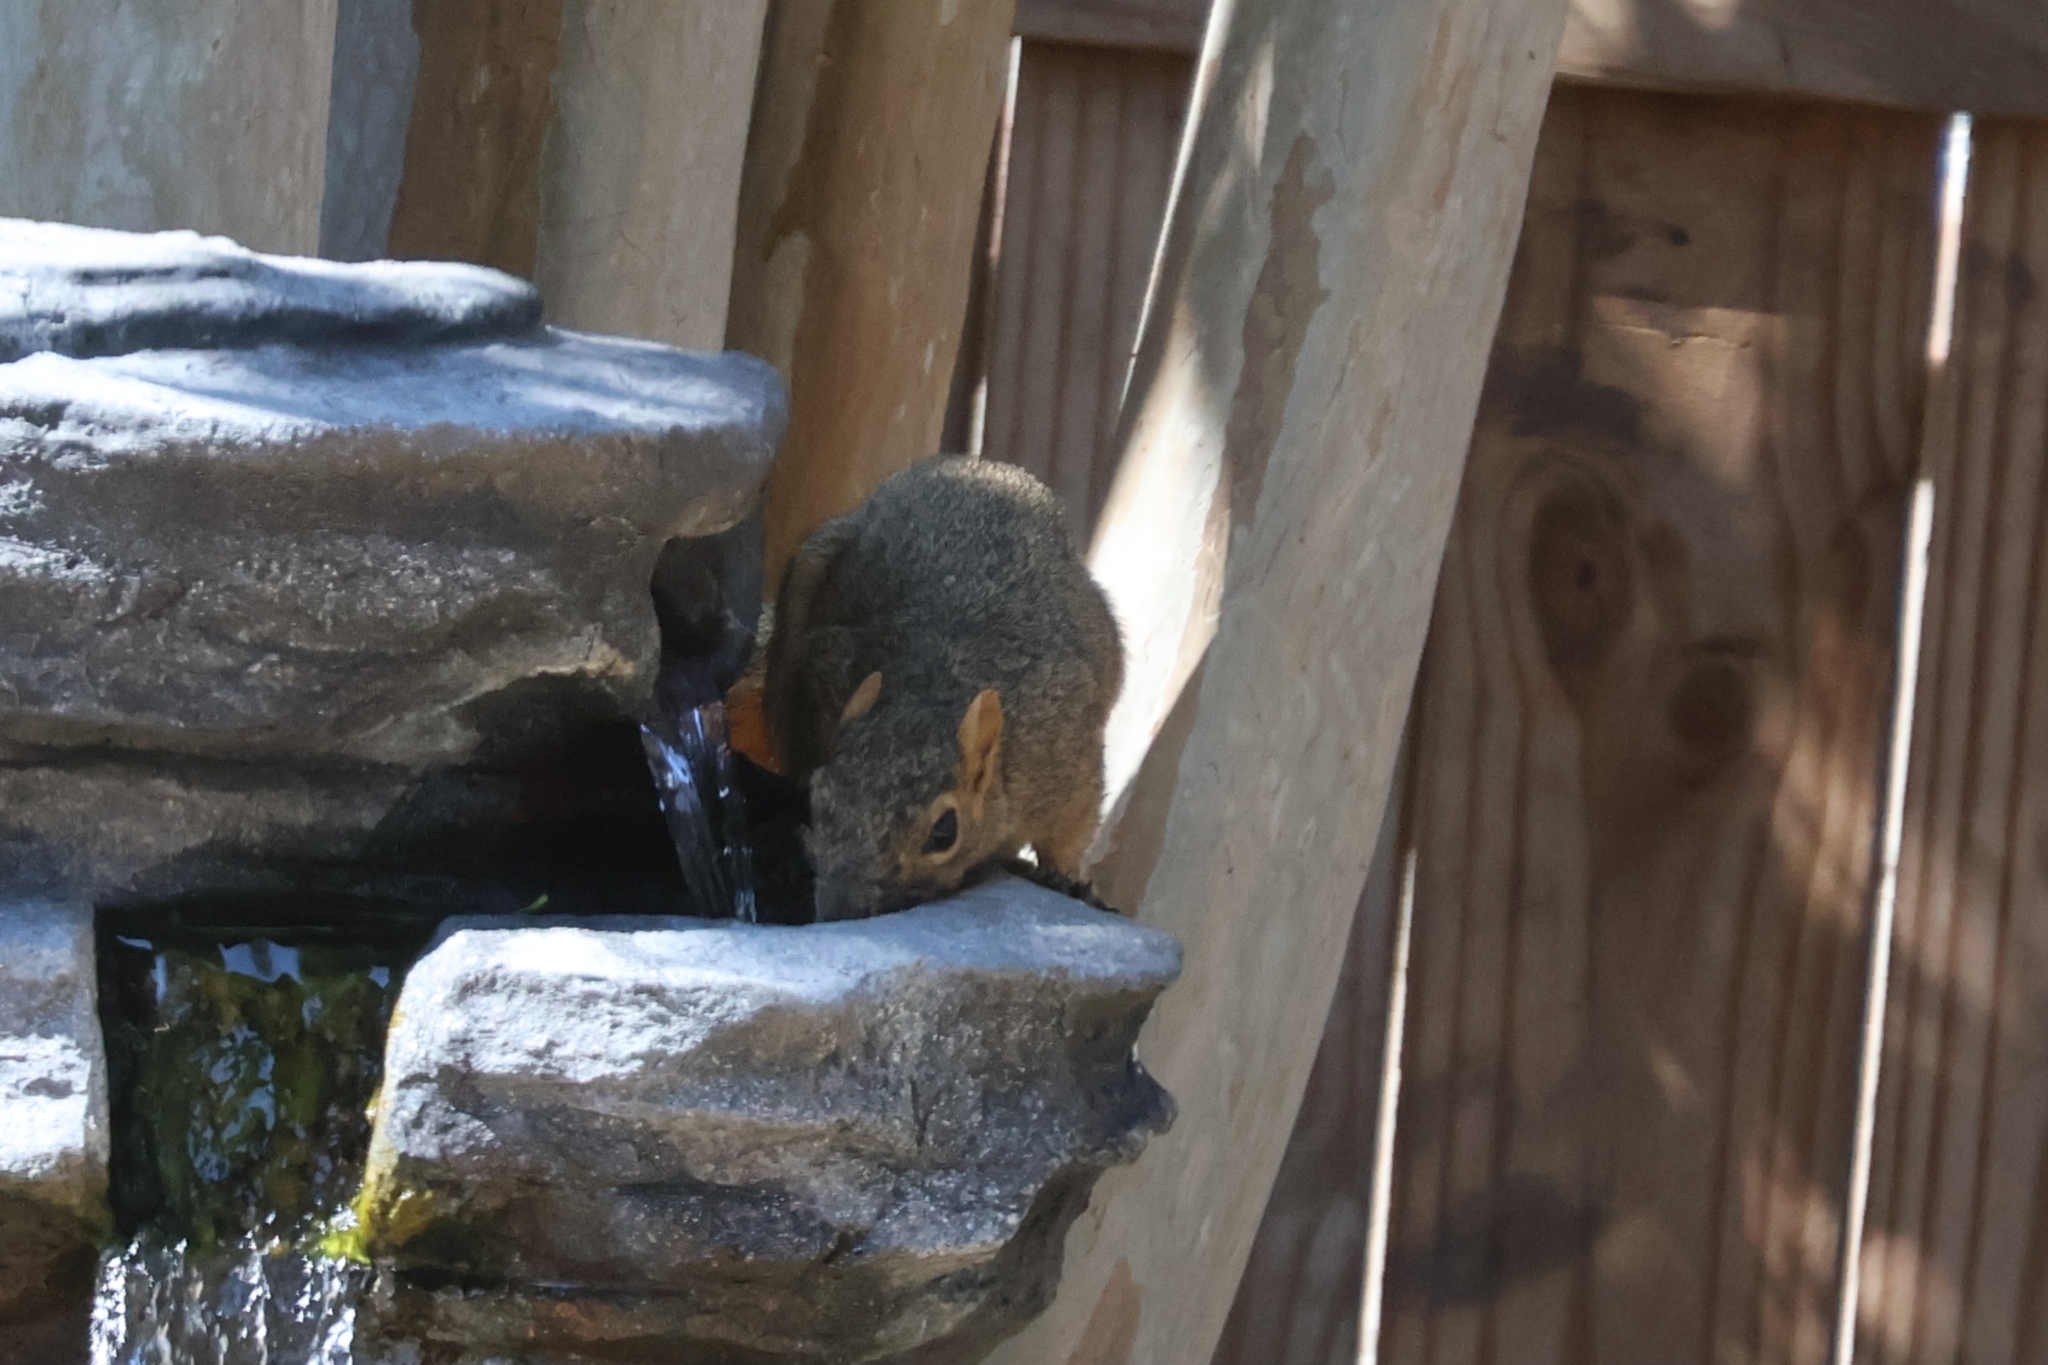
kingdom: Animalia
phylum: Chordata
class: Mammalia
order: Rodentia
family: Sciuridae
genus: Sciurus
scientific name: Sciurus niger
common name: Fox squirrel
